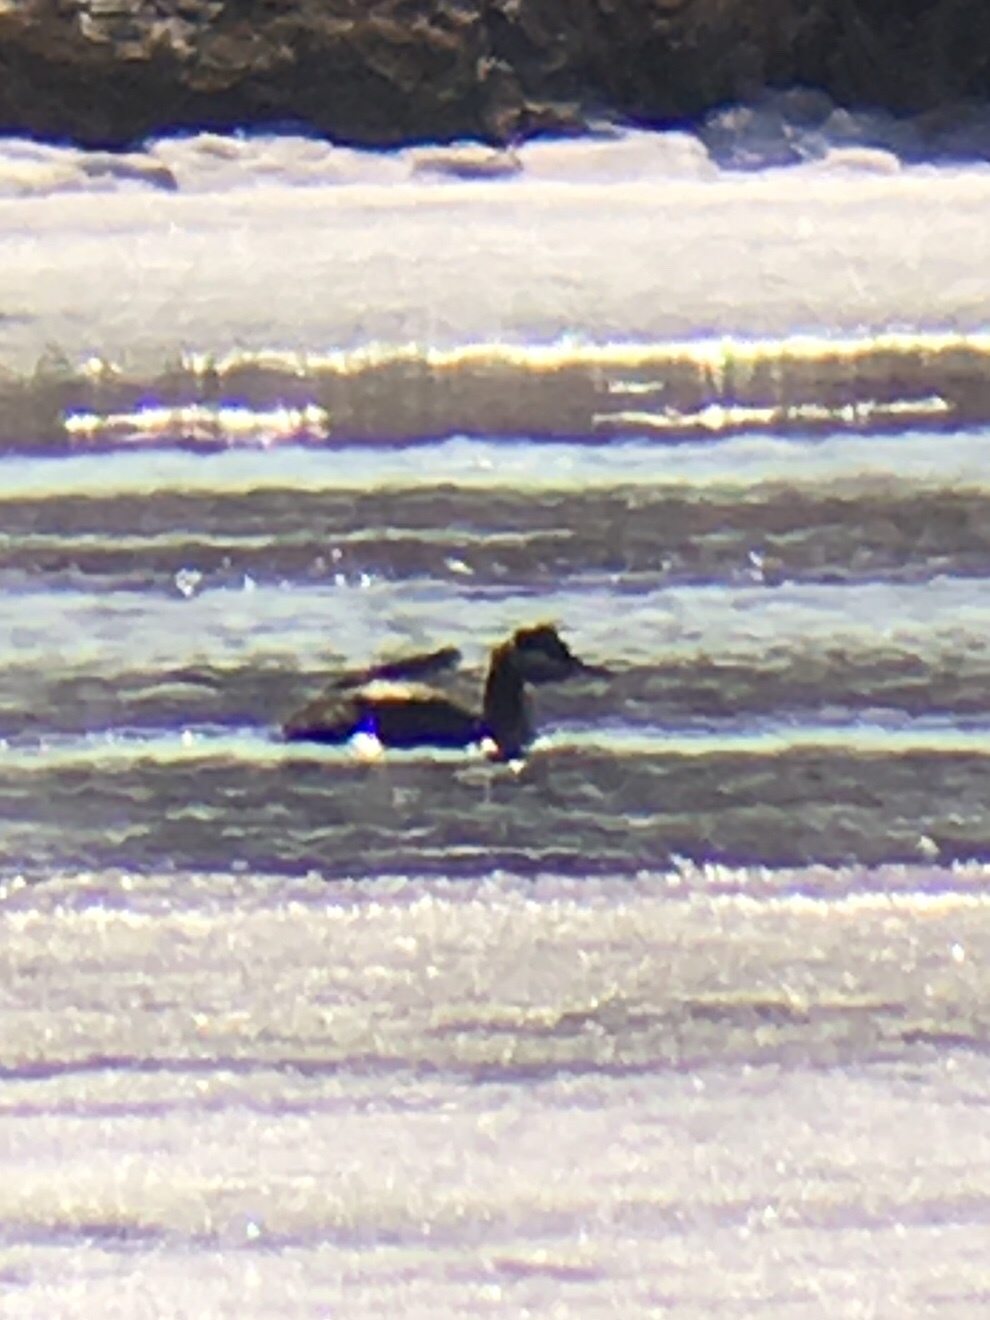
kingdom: Animalia
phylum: Chordata
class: Aves
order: Podicipediformes
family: Podicipedidae
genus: Podiceps
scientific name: Podiceps grisegena
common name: Red-necked grebe
